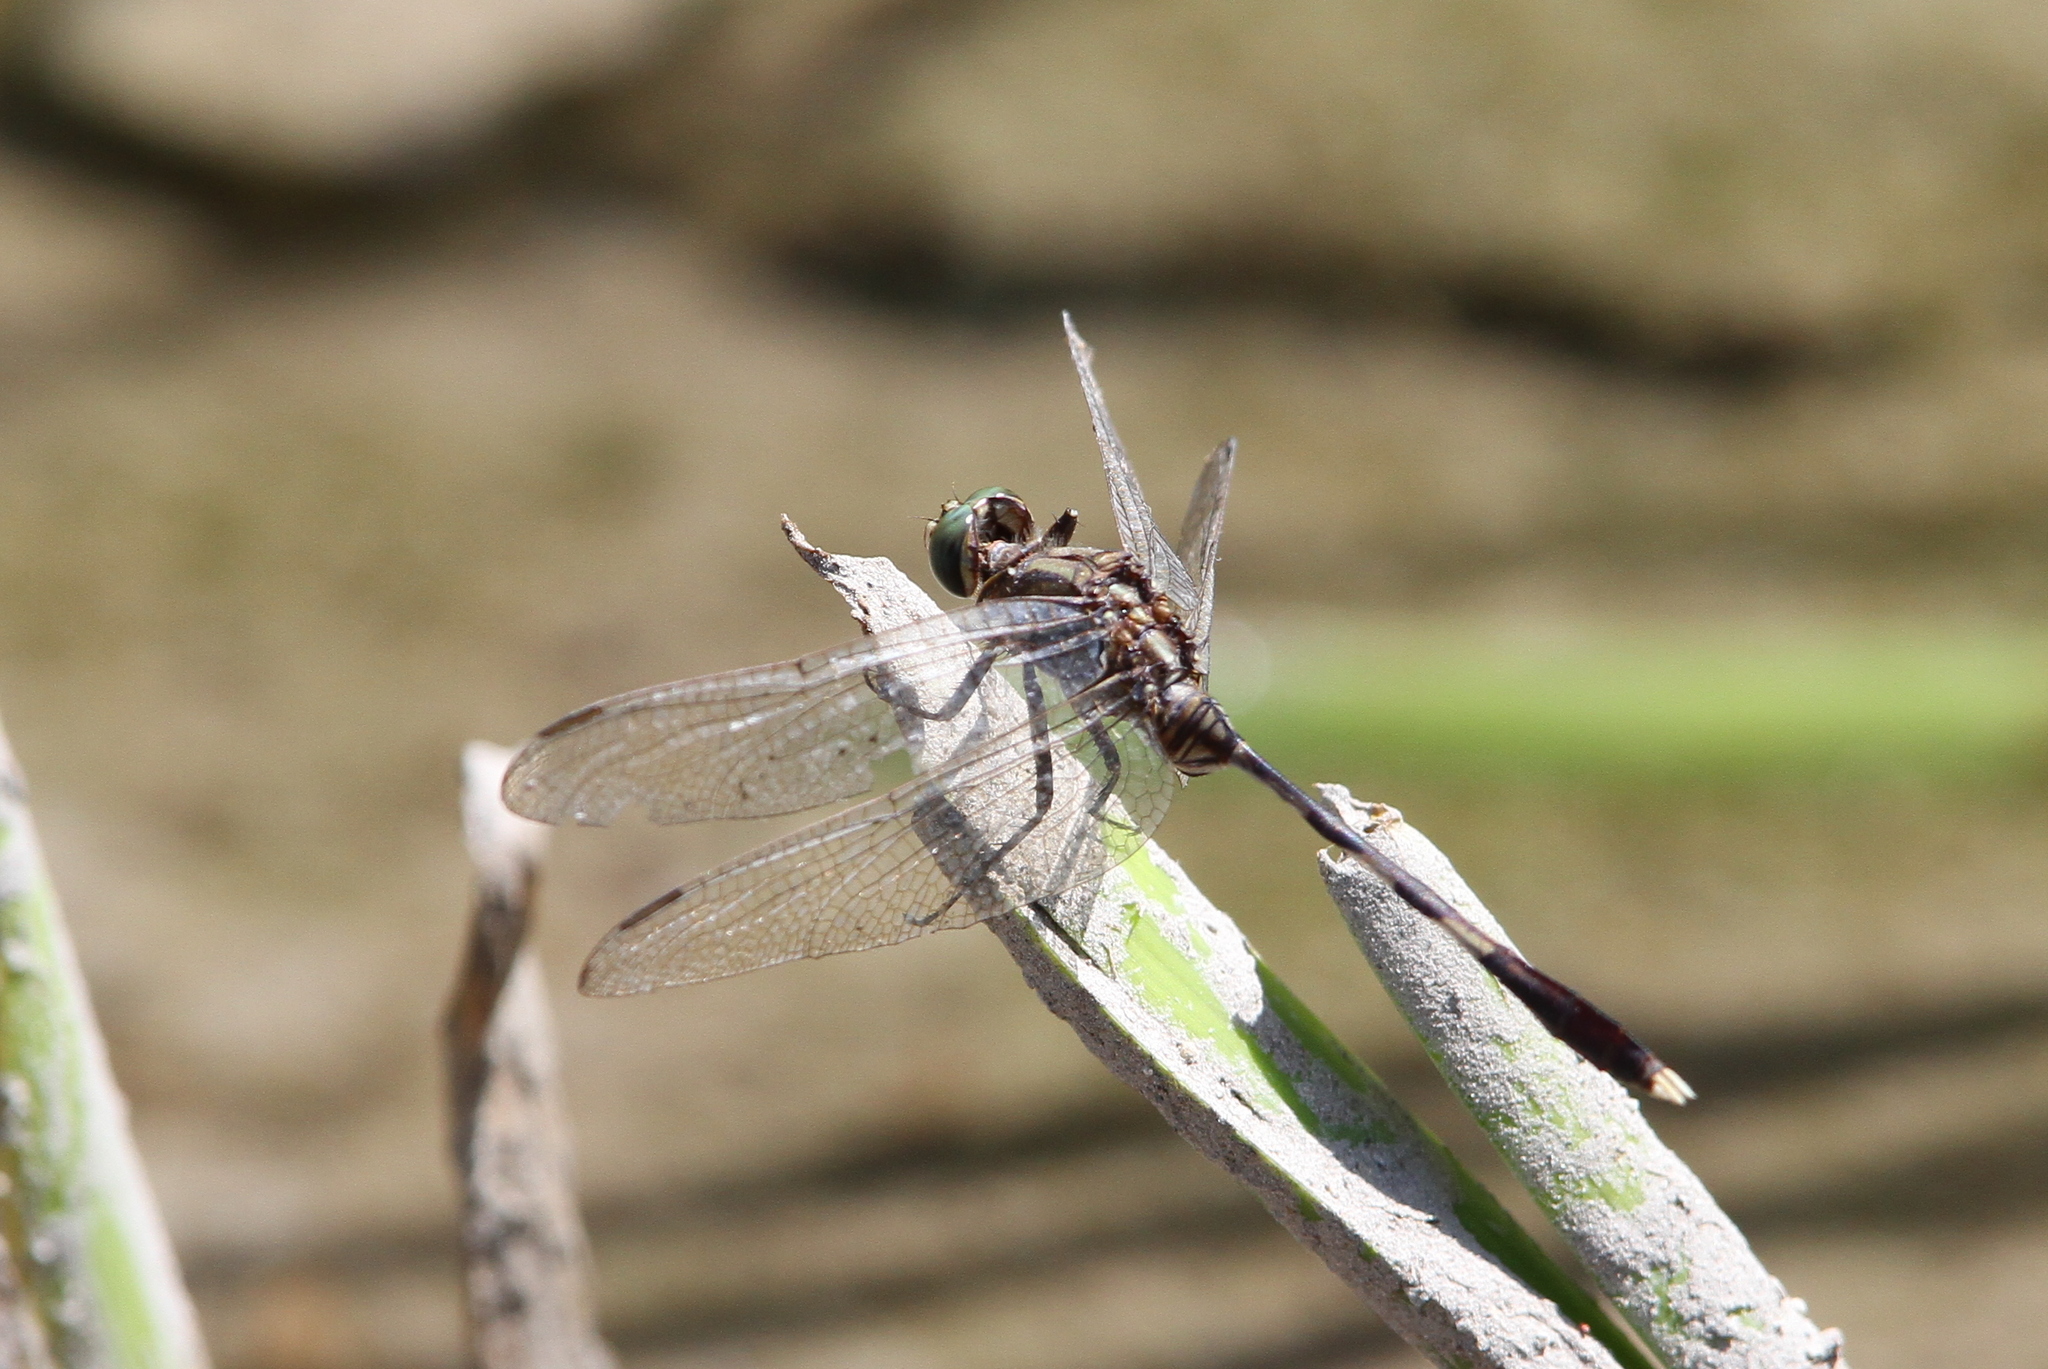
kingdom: Animalia
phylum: Arthropoda
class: Insecta
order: Odonata
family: Libellulidae
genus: Orthetrum
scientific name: Orthetrum sabina
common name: Slender skimmer
